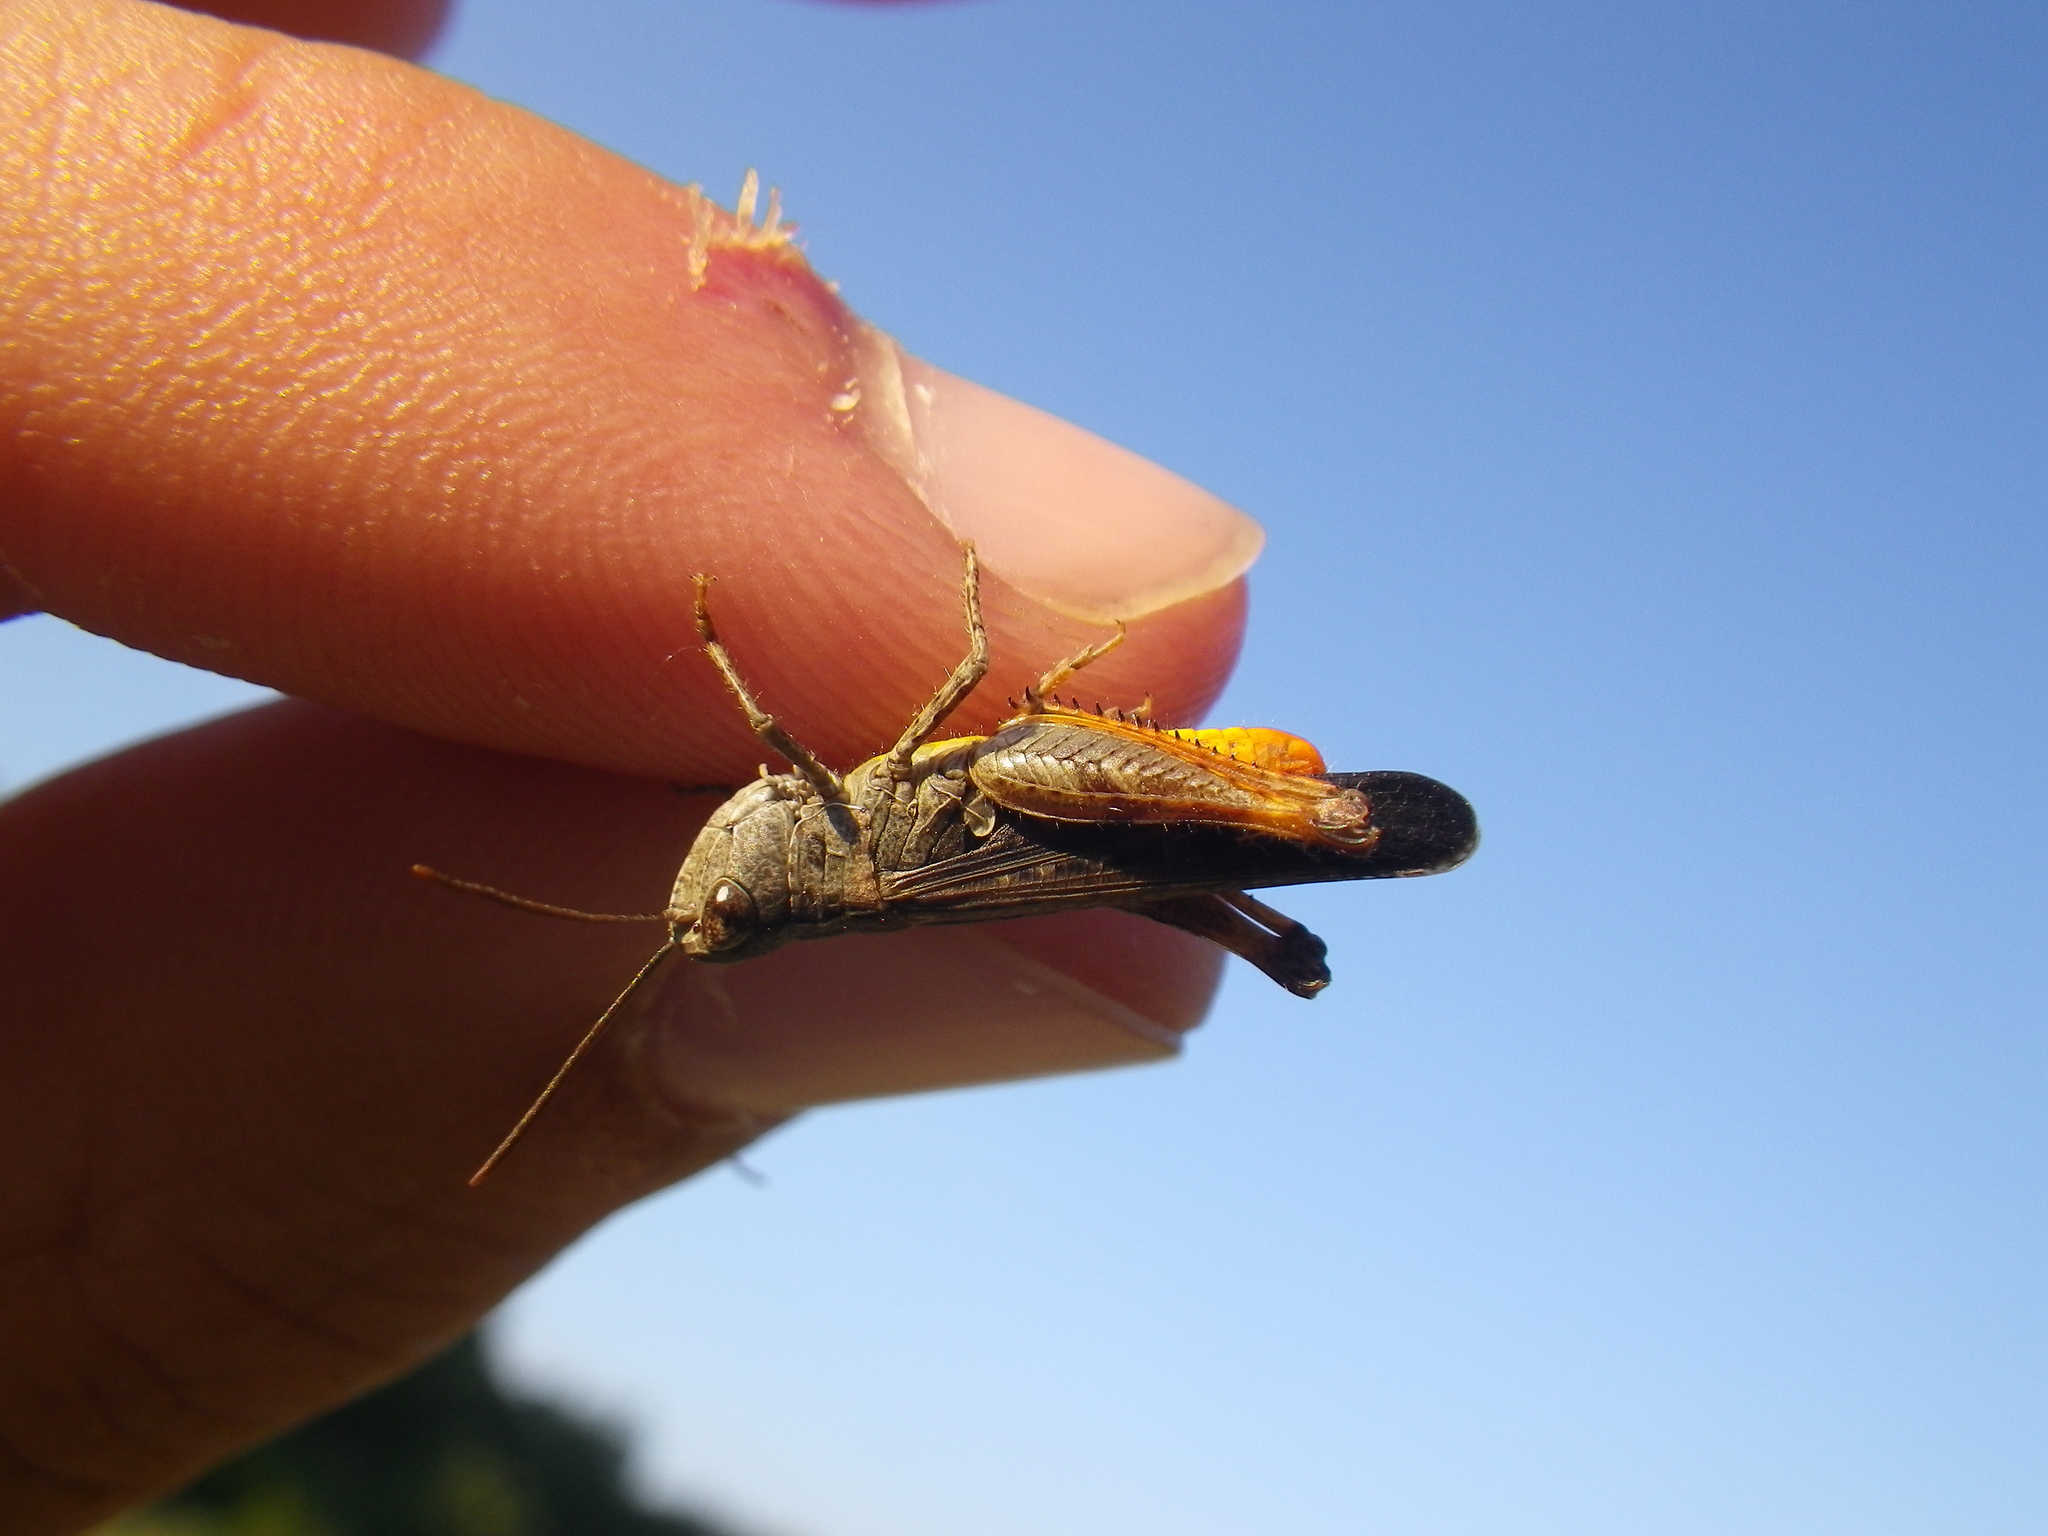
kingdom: Animalia
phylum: Arthropoda
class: Insecta
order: Orthoptera
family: Acrididae
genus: Omocestus
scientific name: Omocestus raymondi
